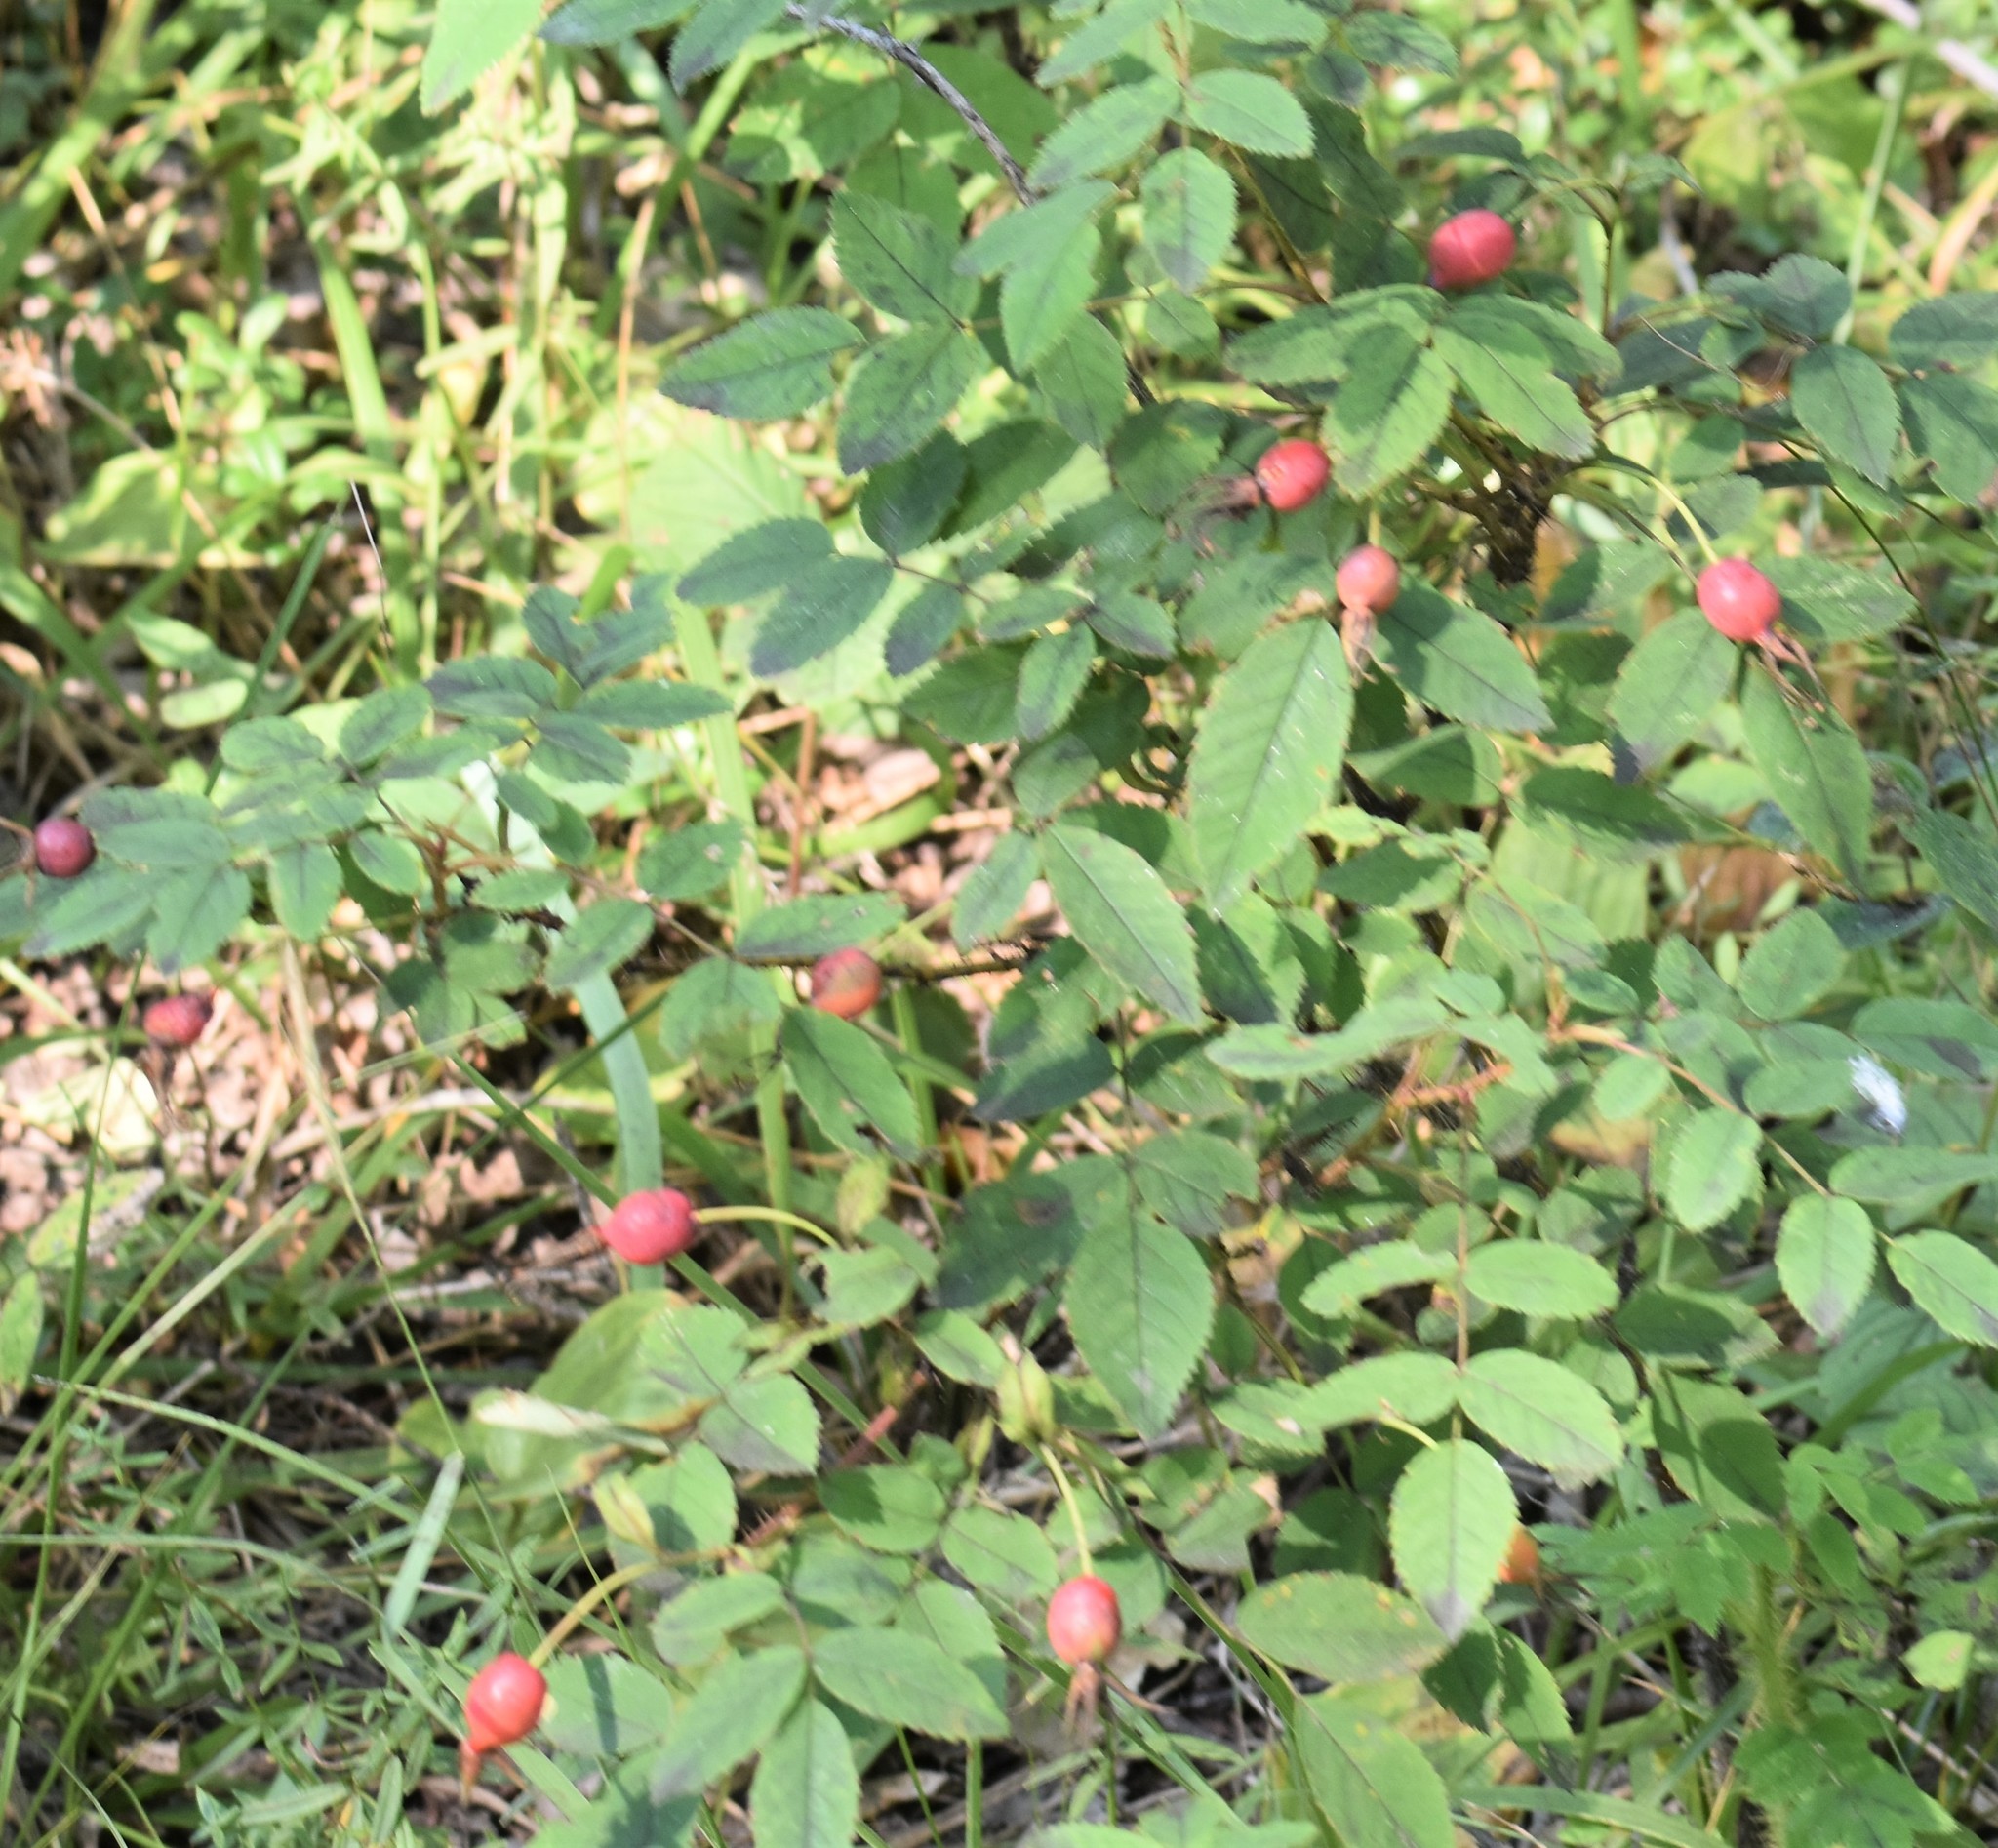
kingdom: Plantae
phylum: Tracheophyta
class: Magnoliopsida
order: Rosales
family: Rosaceae
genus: Rosa
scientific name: Rosa acicularis
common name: Prickly rose
